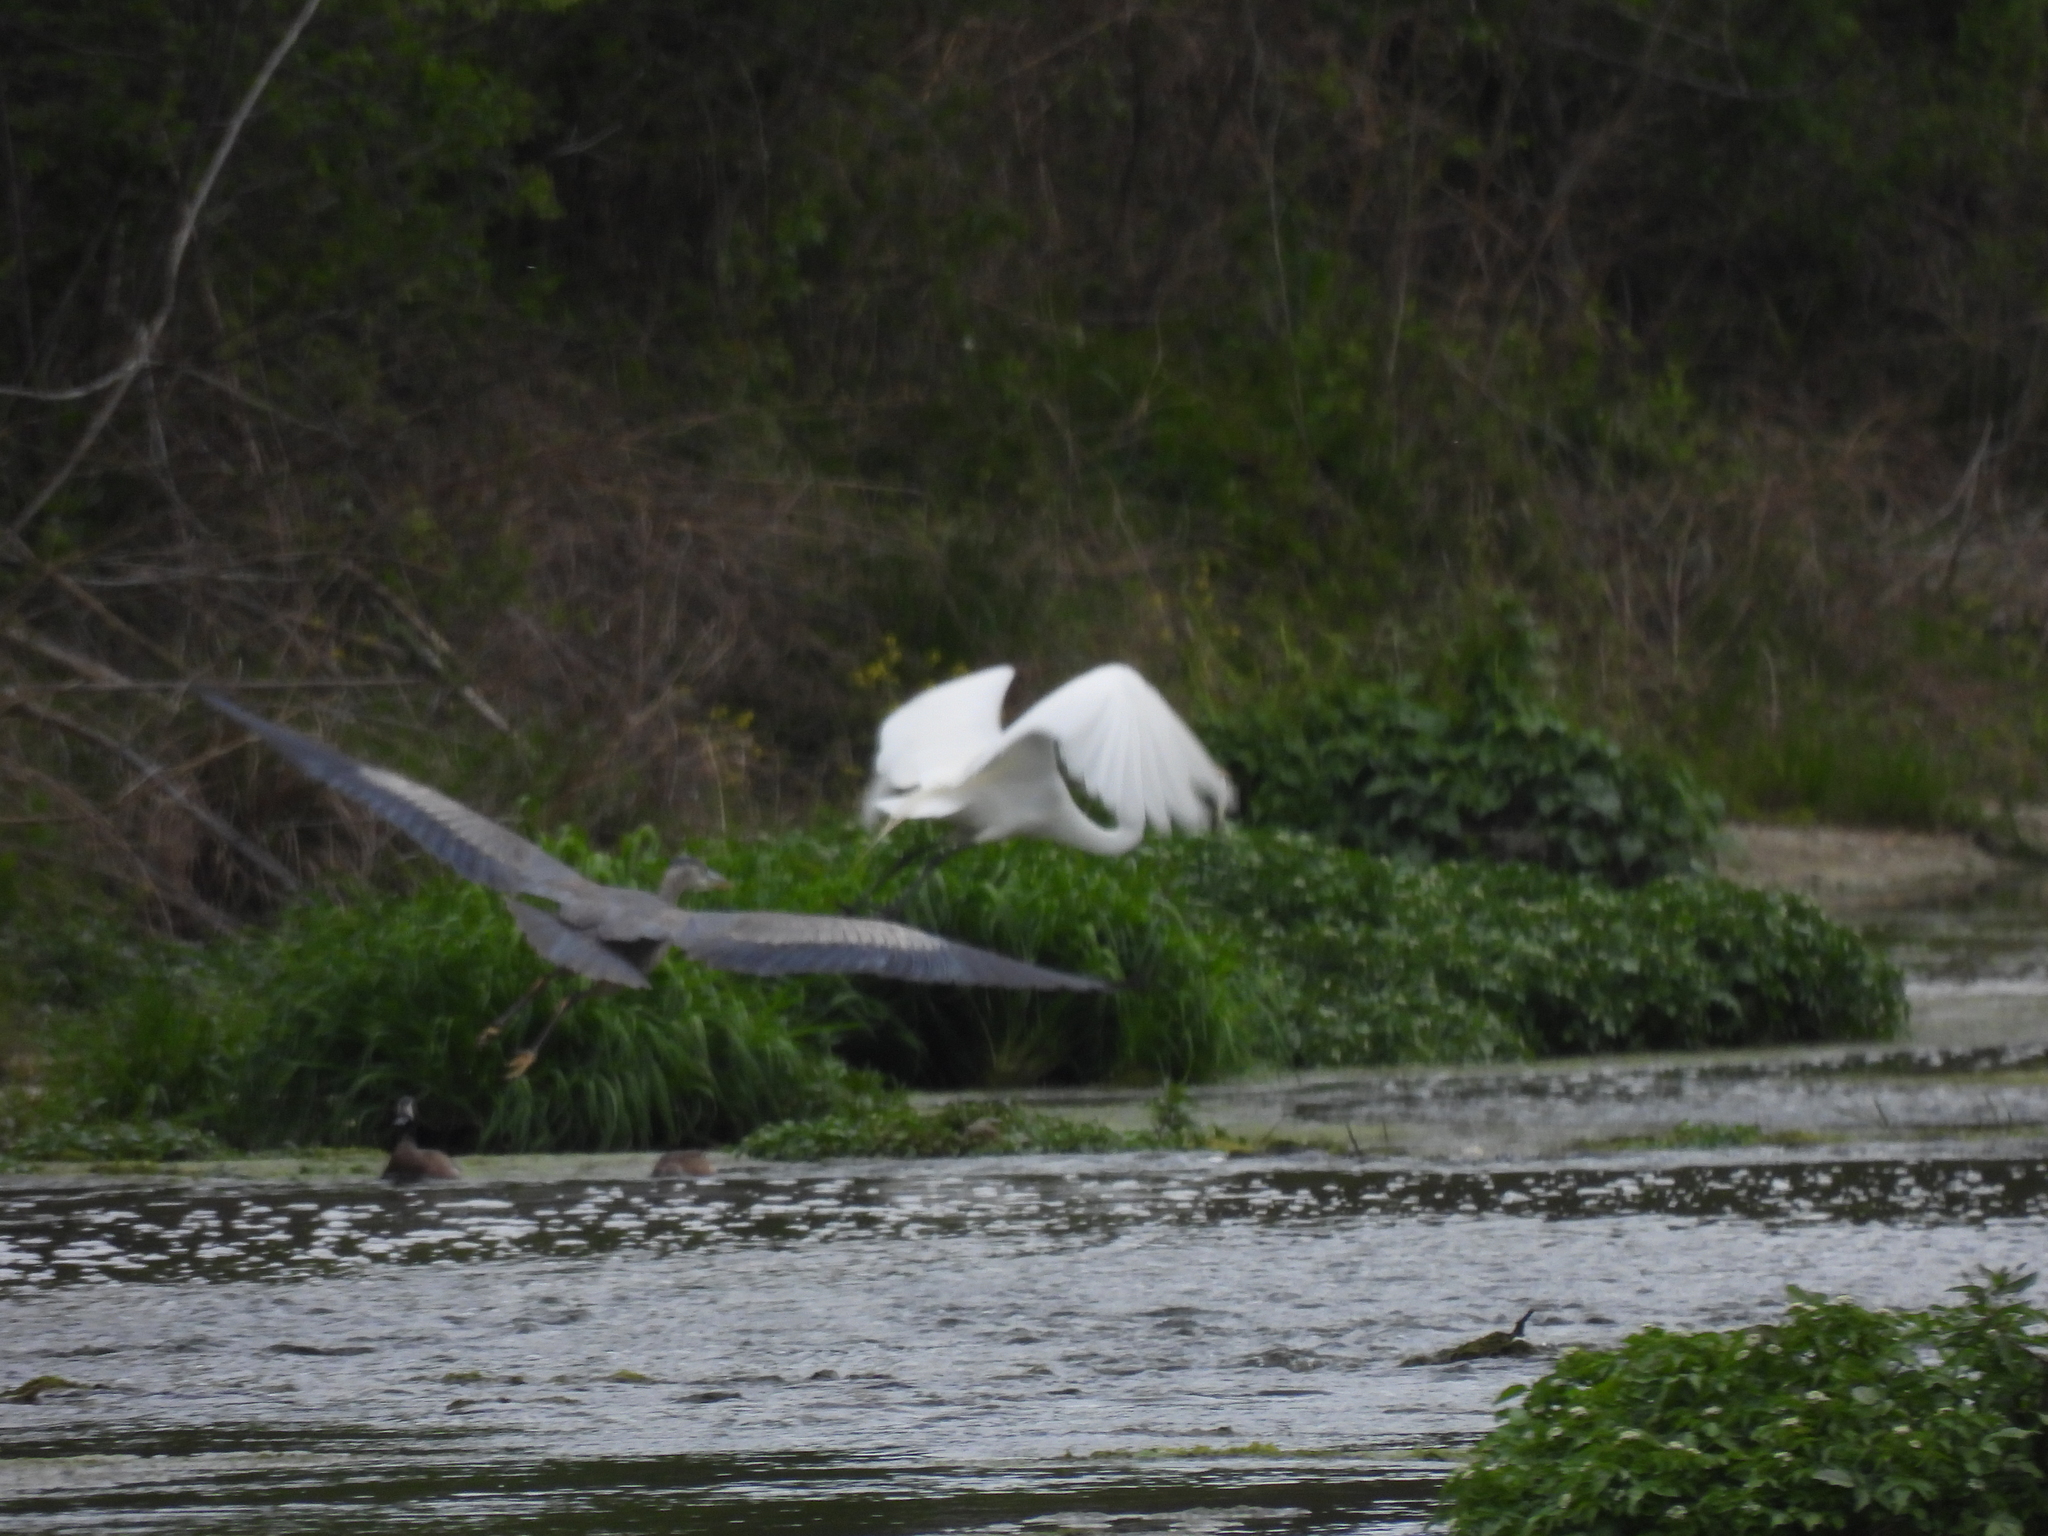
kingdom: Animalia
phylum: Chordata
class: Aves
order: Pelecaniformes
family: Ardeidae
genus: Ardea
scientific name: Ardea alba
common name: Great egret
